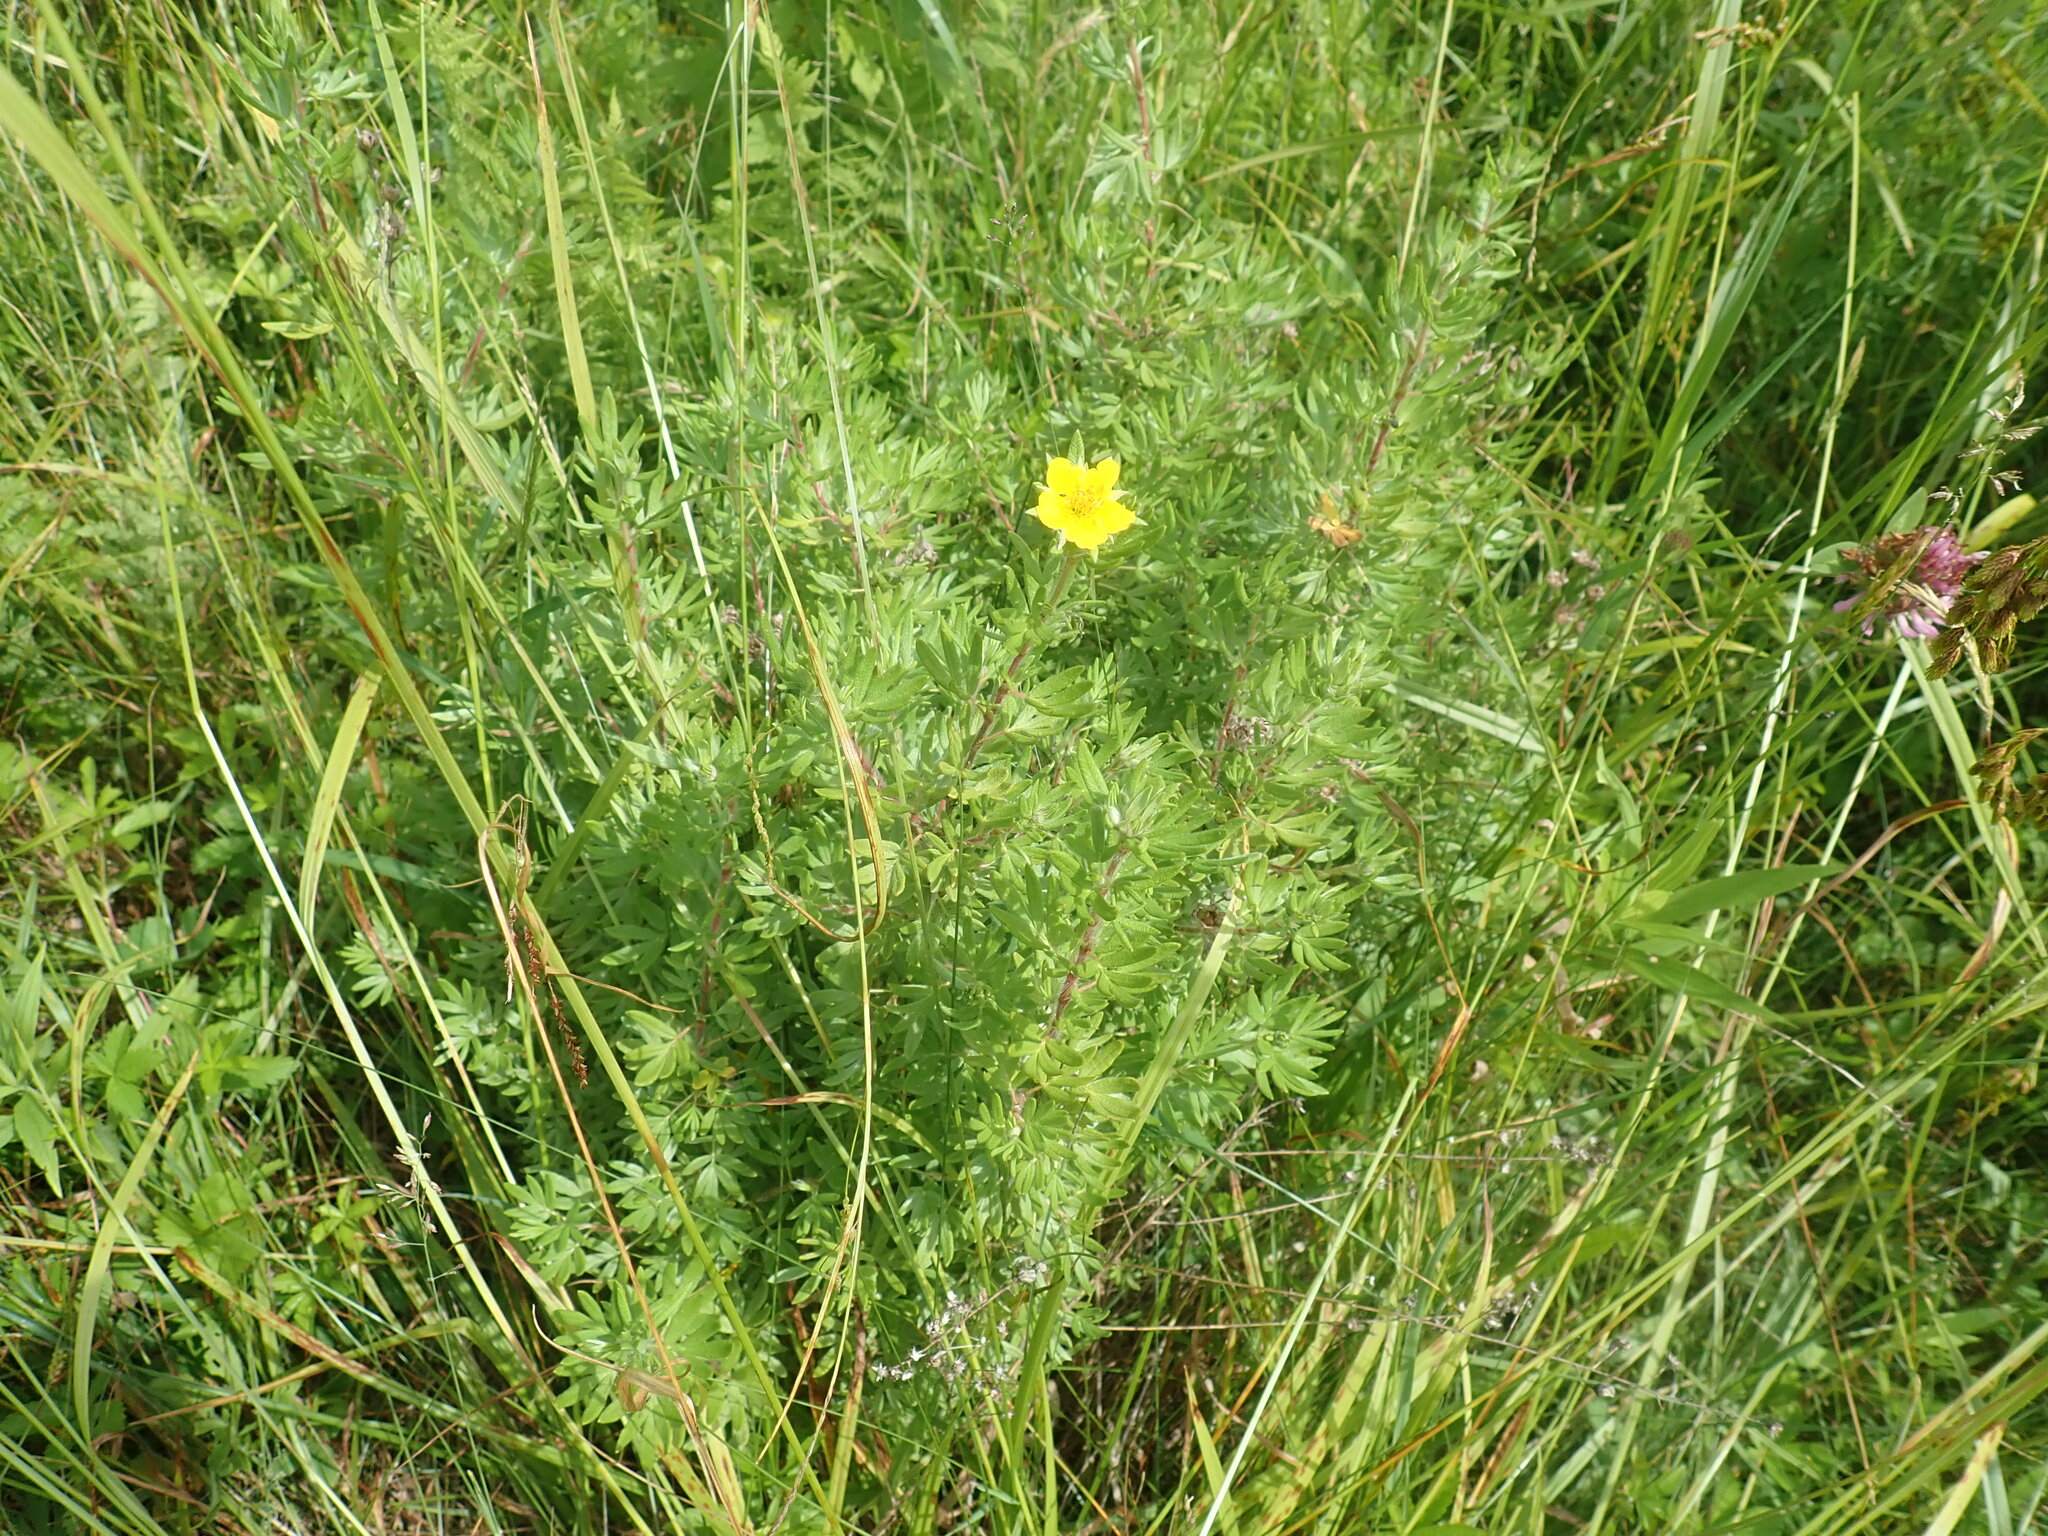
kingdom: Plantae
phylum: Tracheophyta
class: Magnoliopsida
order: Rosales
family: Rosaceae
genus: Dasiphora
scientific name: Dasiphora fruticosa
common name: Shrubby cinquefoil
